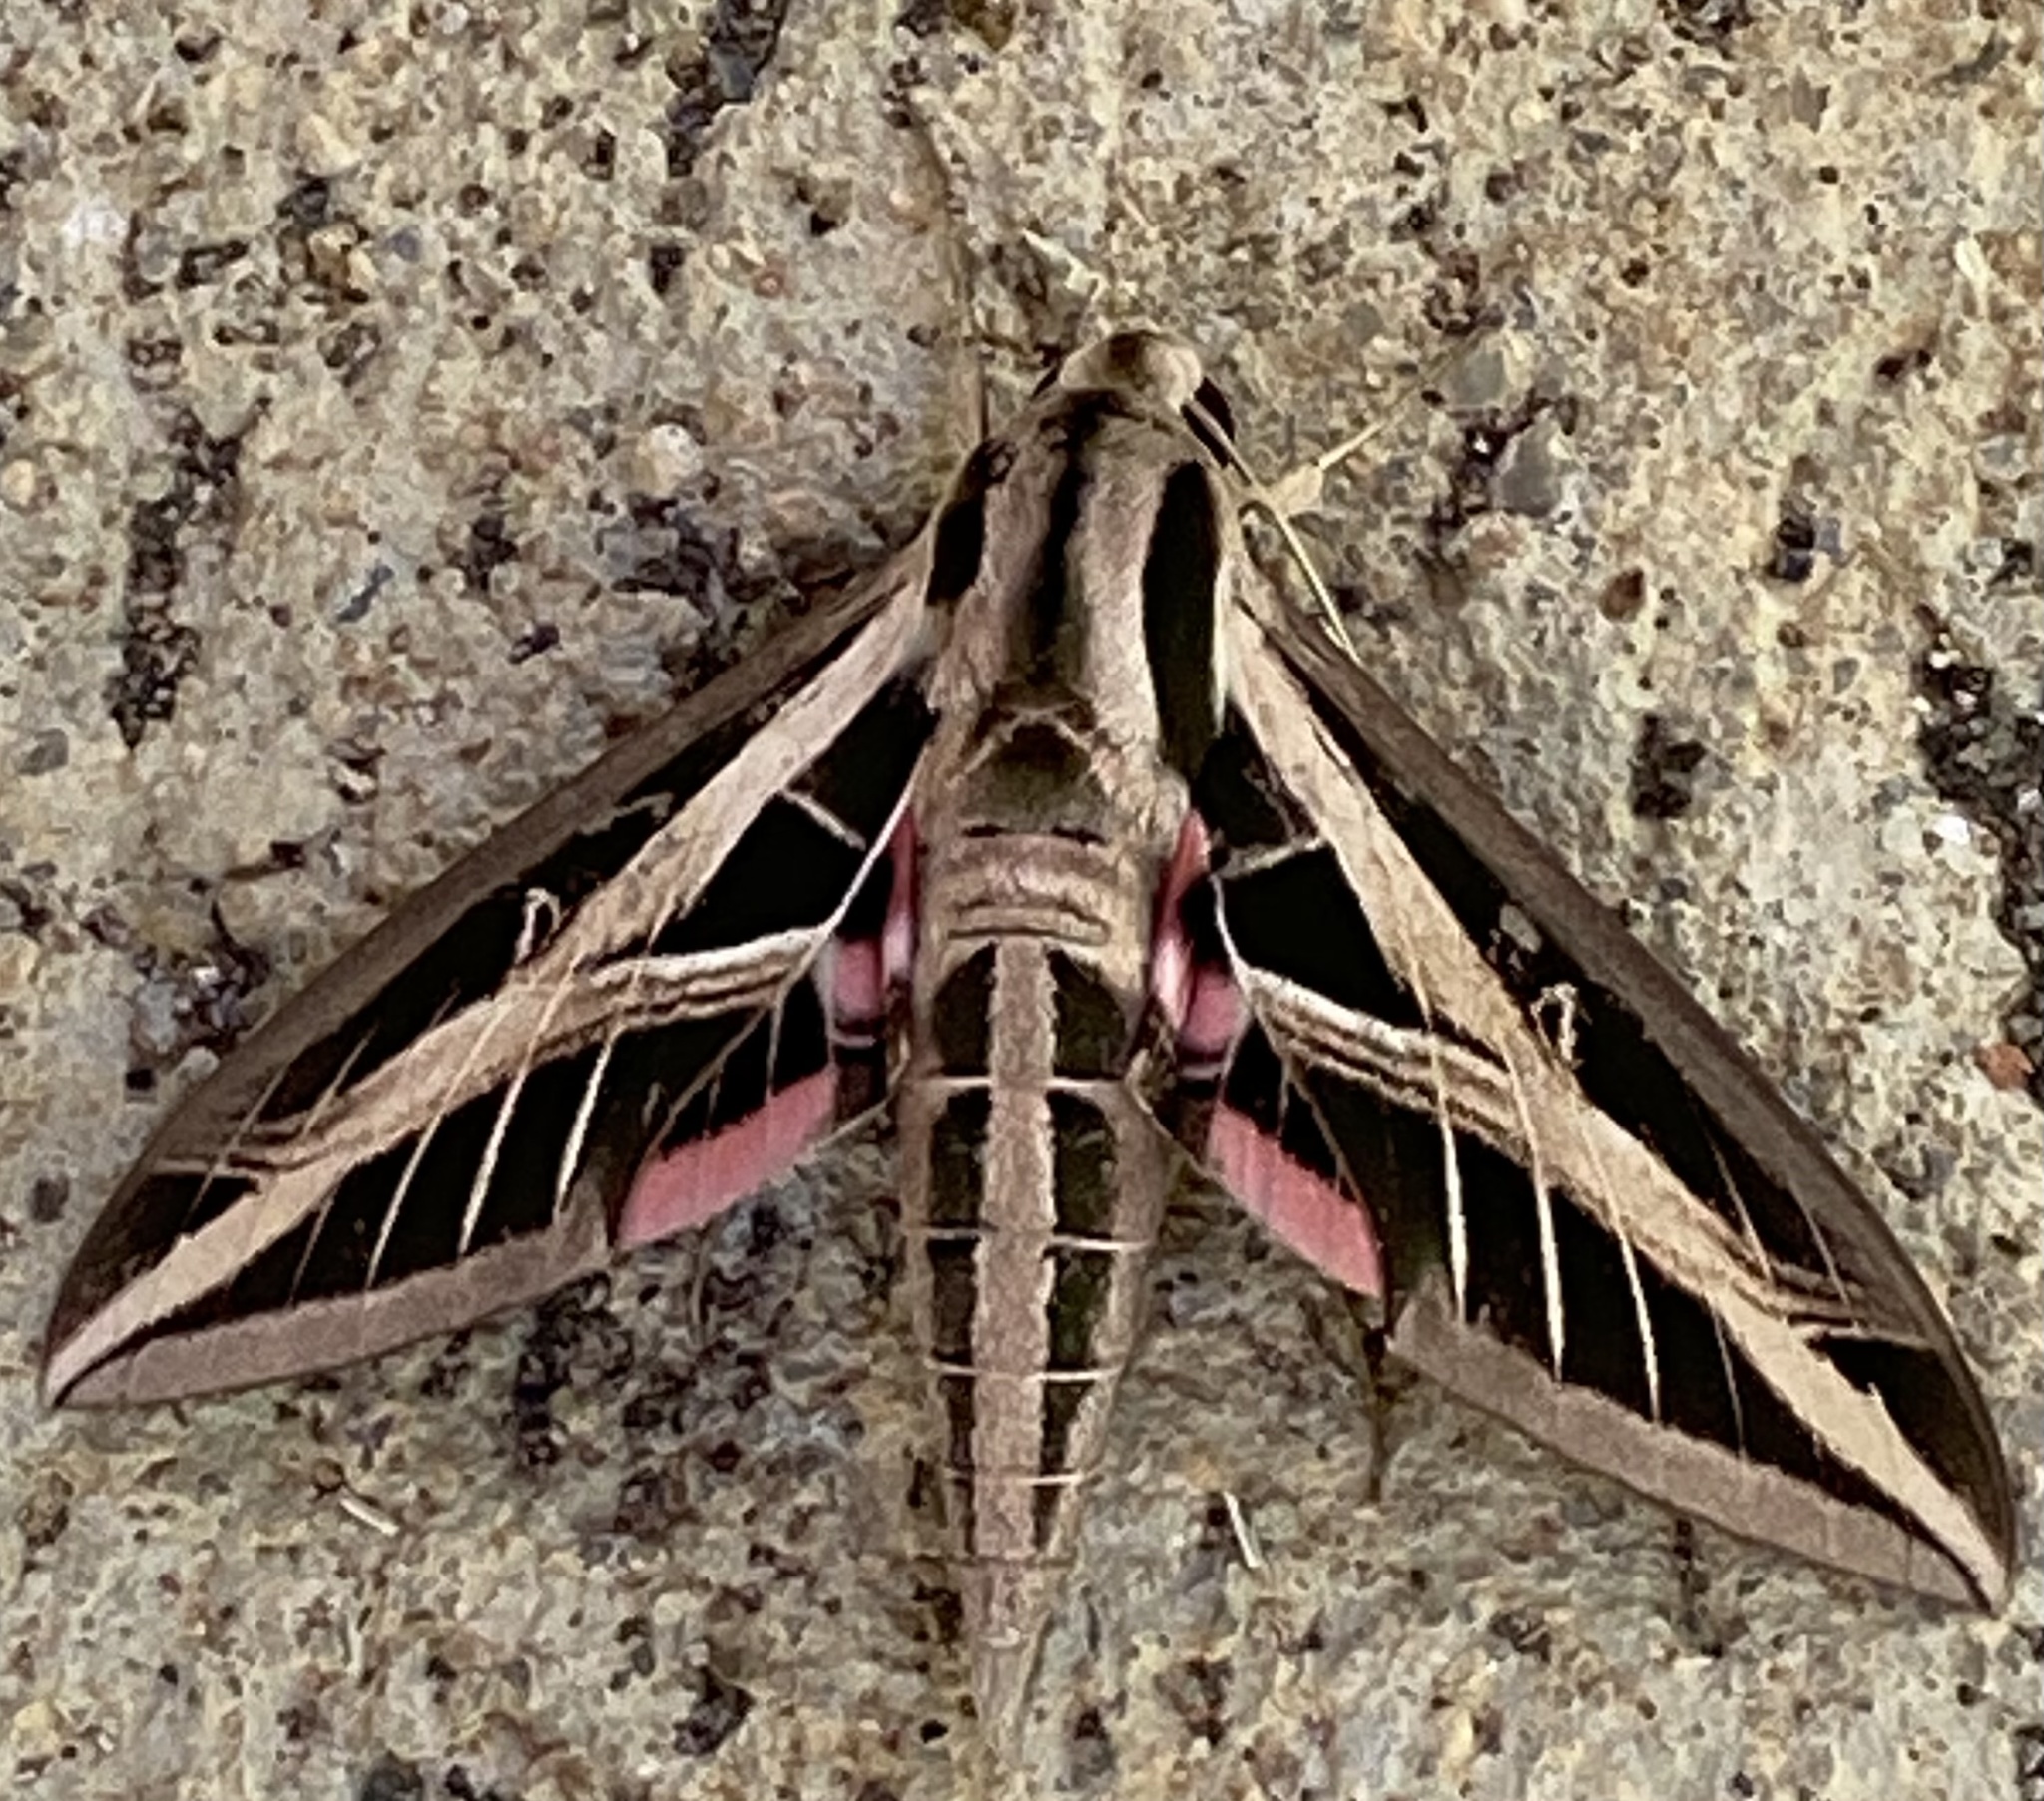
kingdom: Animalia
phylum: Arthropoda
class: Insecta
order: Lepidoptera
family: Sphingidae
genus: Eumorpha
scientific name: Eumorpha fasciatus
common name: Banded sphinx
